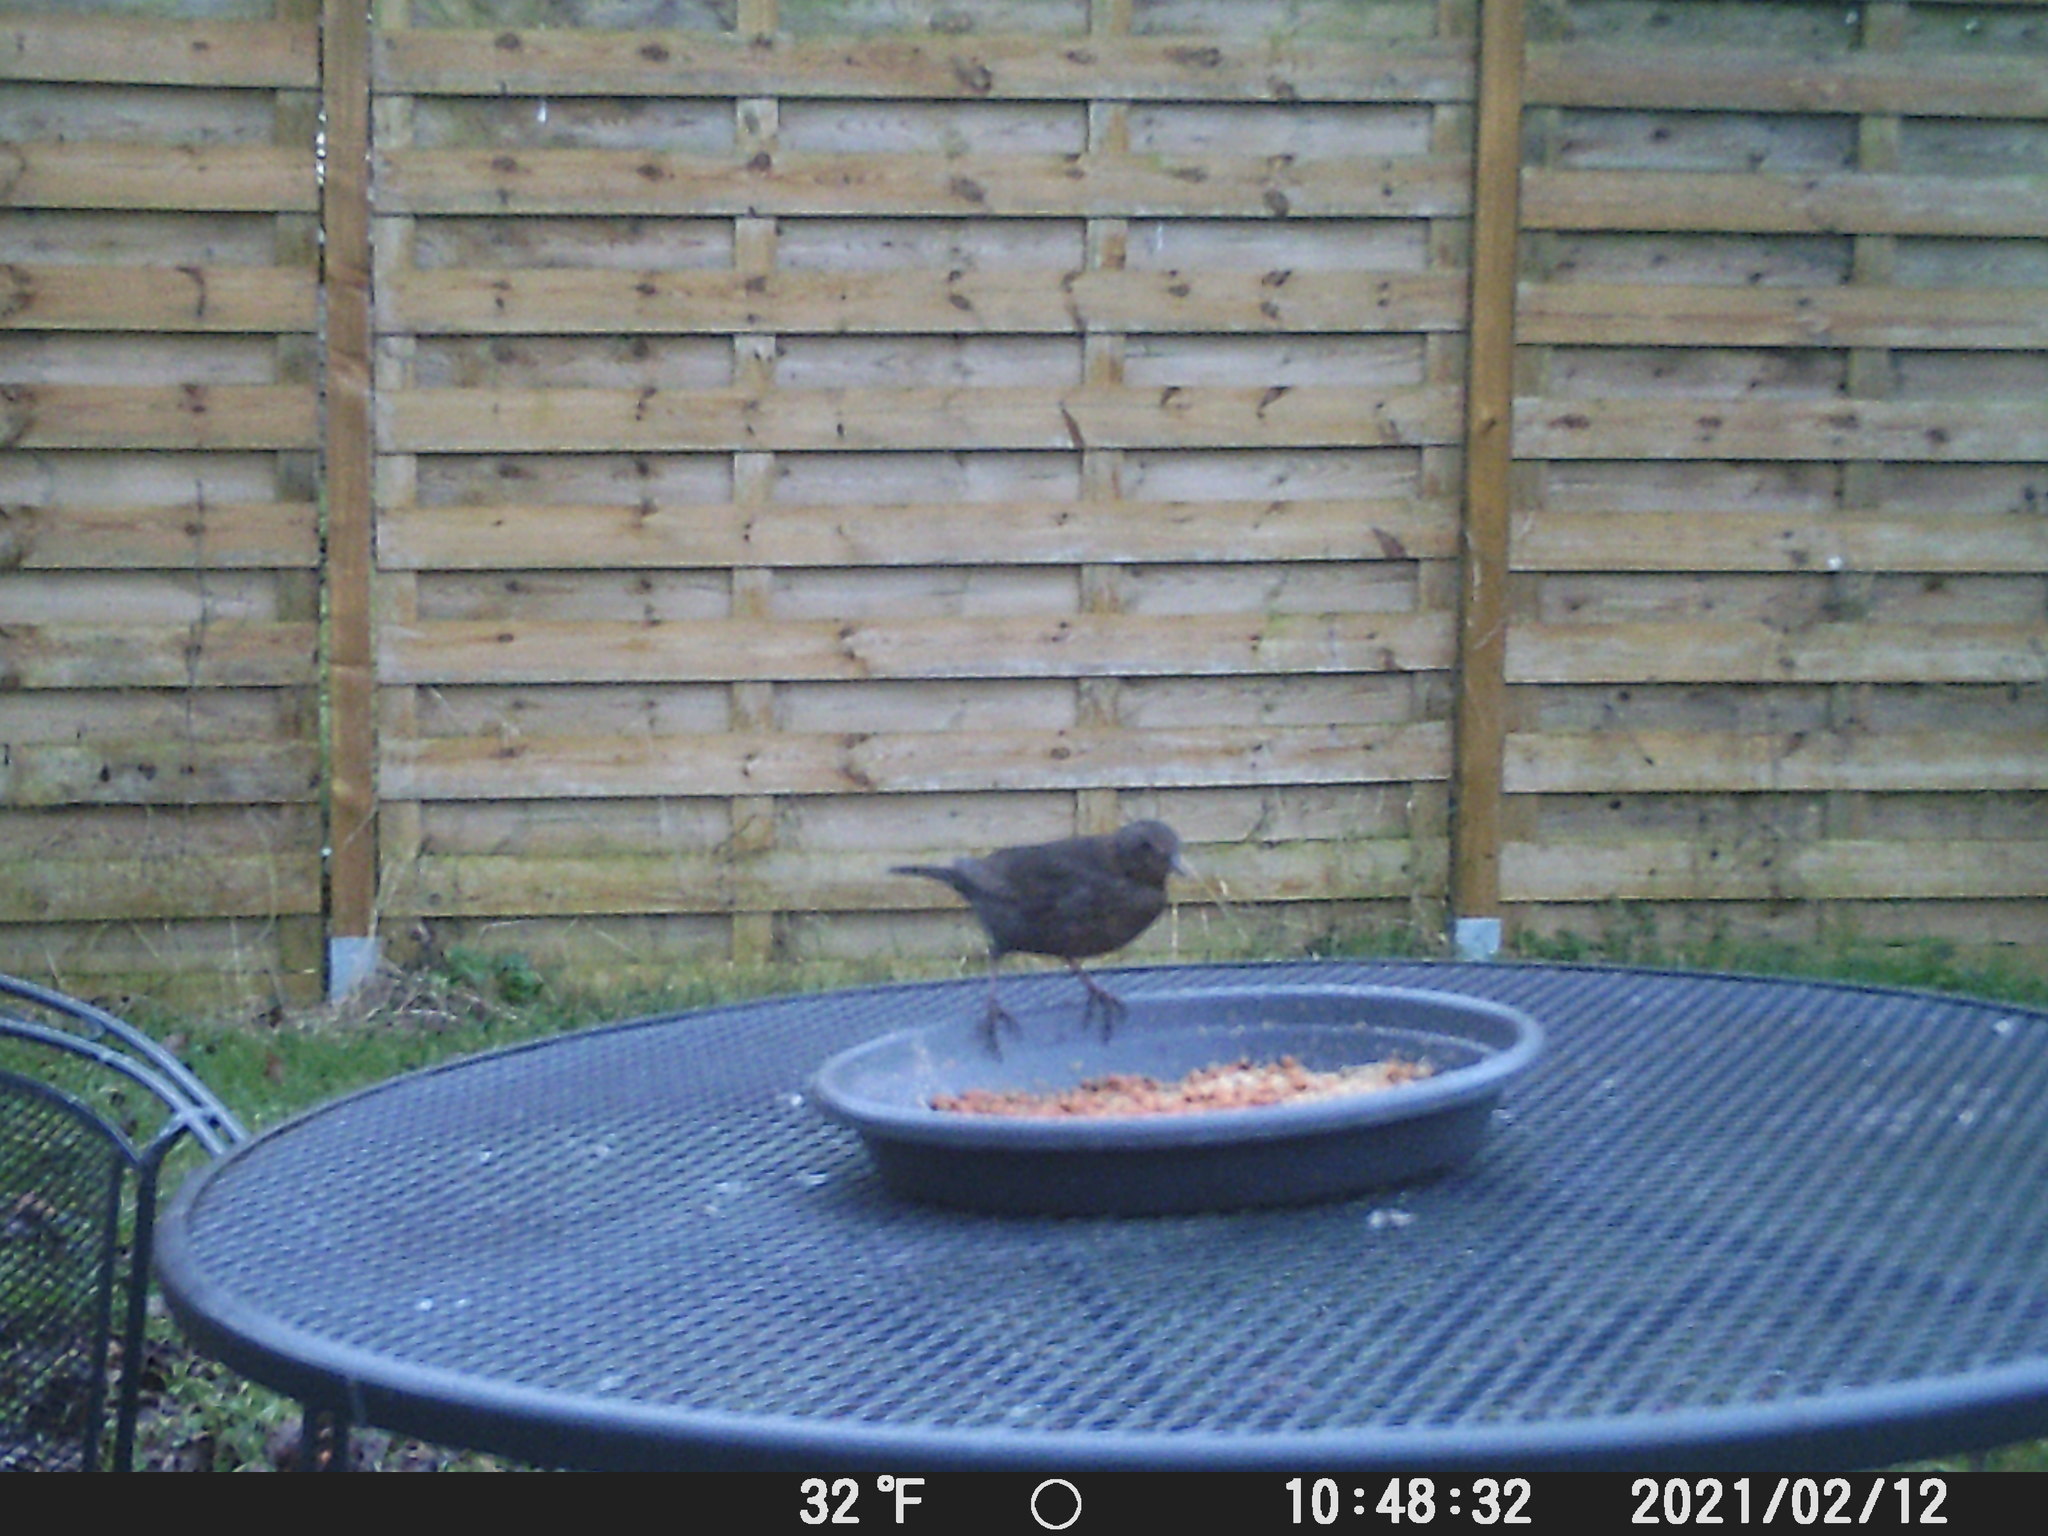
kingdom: Animalia
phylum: Chordata
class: Aves
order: Passeriformes
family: Turdidae
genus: Turdus
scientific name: Turdus merula
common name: Common blackbird
